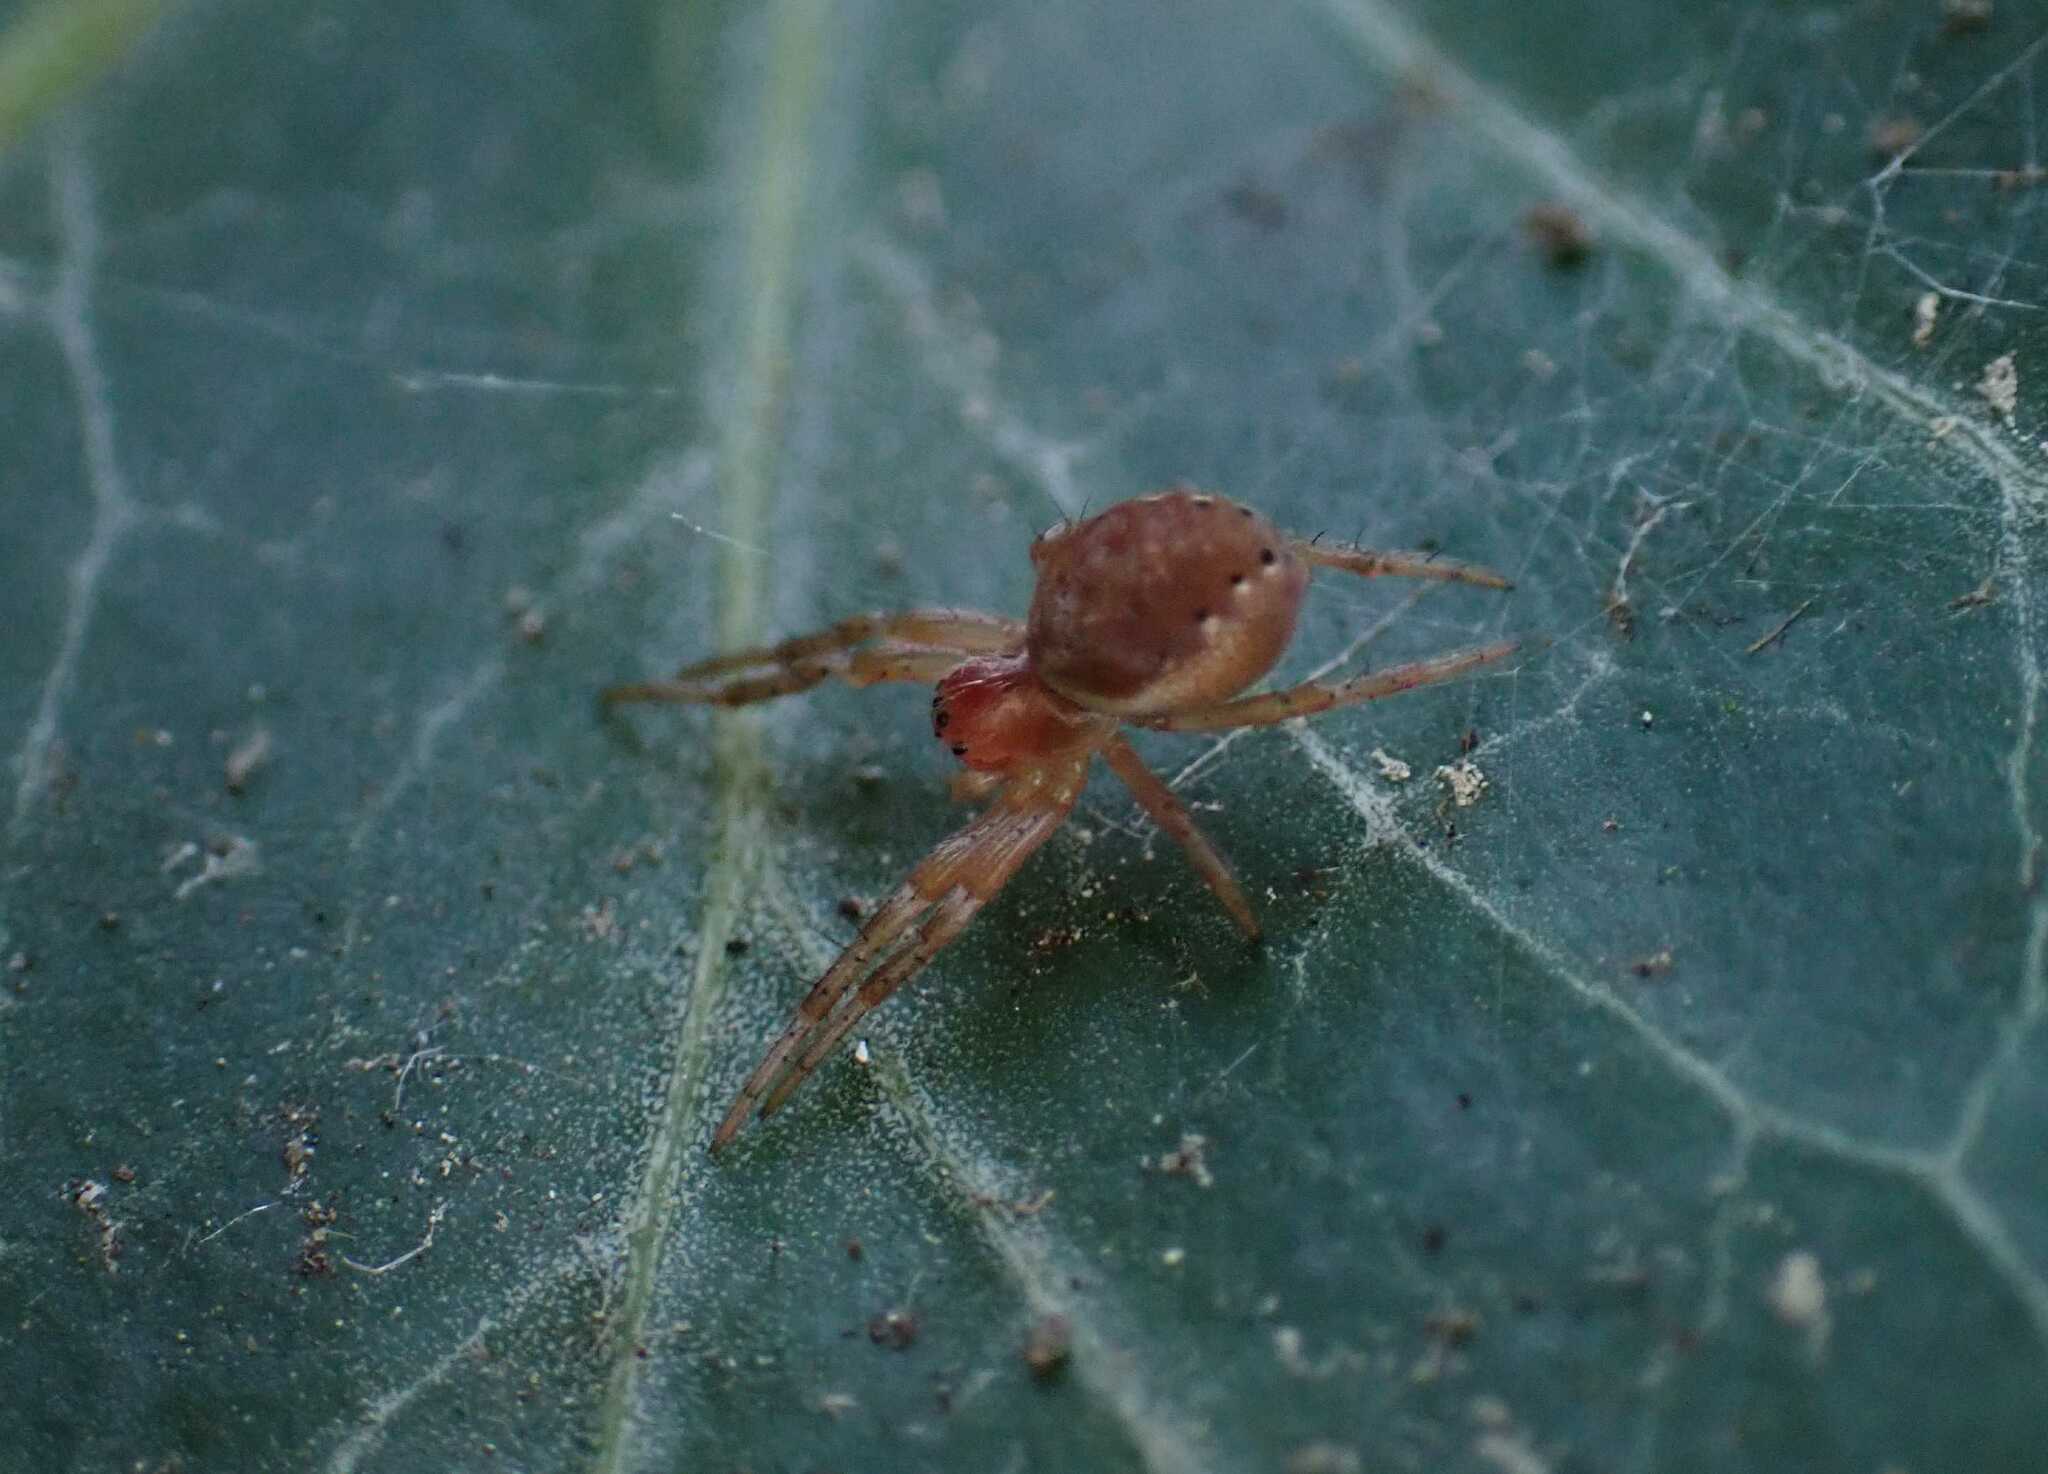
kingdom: Animalia
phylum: Arthropoda
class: Arachnida
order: Araneae
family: Araneidae
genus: Araniella
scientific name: Araniella
